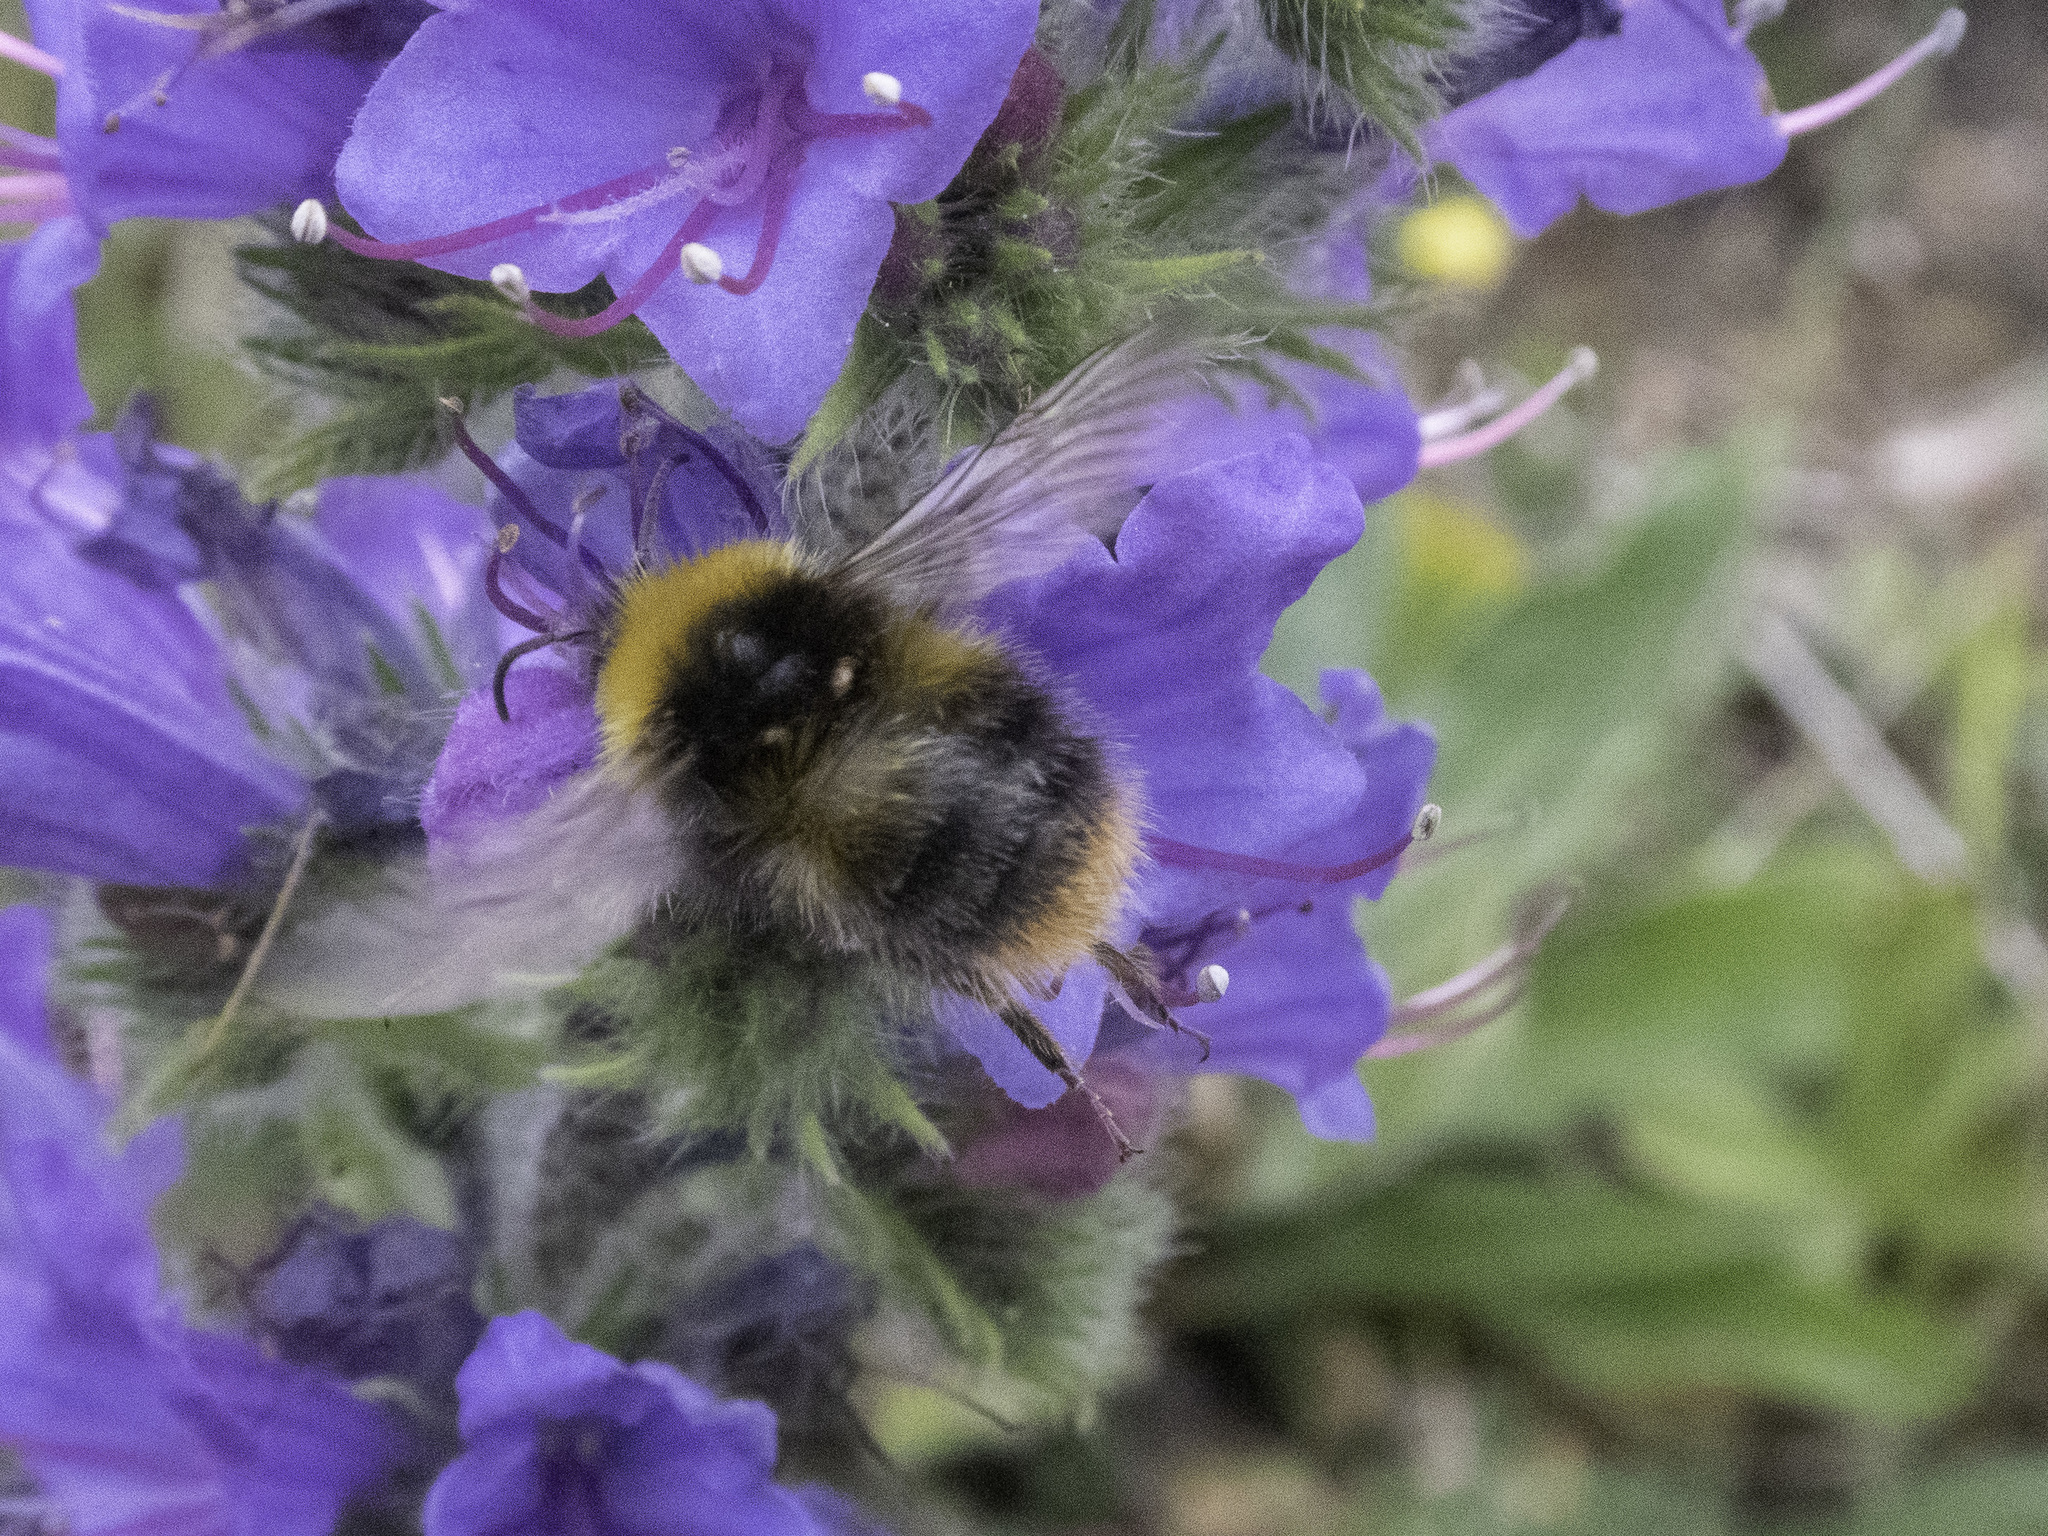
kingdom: Animalia
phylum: Arthropoda
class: Insecta
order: Hymenoptera
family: Apidae
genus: Bombus
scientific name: Bombus pratorum
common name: Early humble-bee
